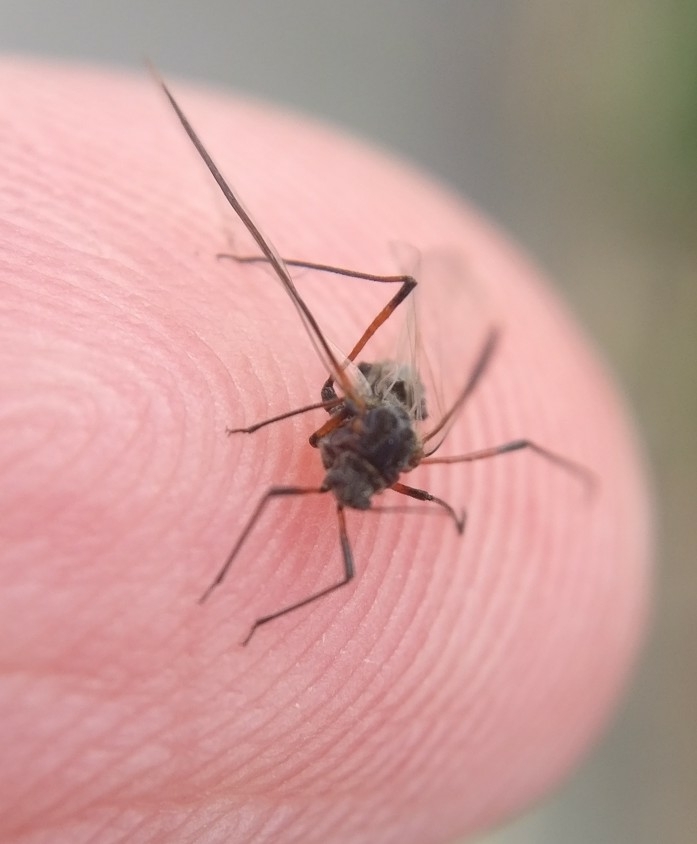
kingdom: Animalia
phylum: Arthropoda
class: Insecta
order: Hemiptera
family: Aphididae
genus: Tuberolachnus
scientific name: Tuberolachnus salignus
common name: Giant willow aphid
